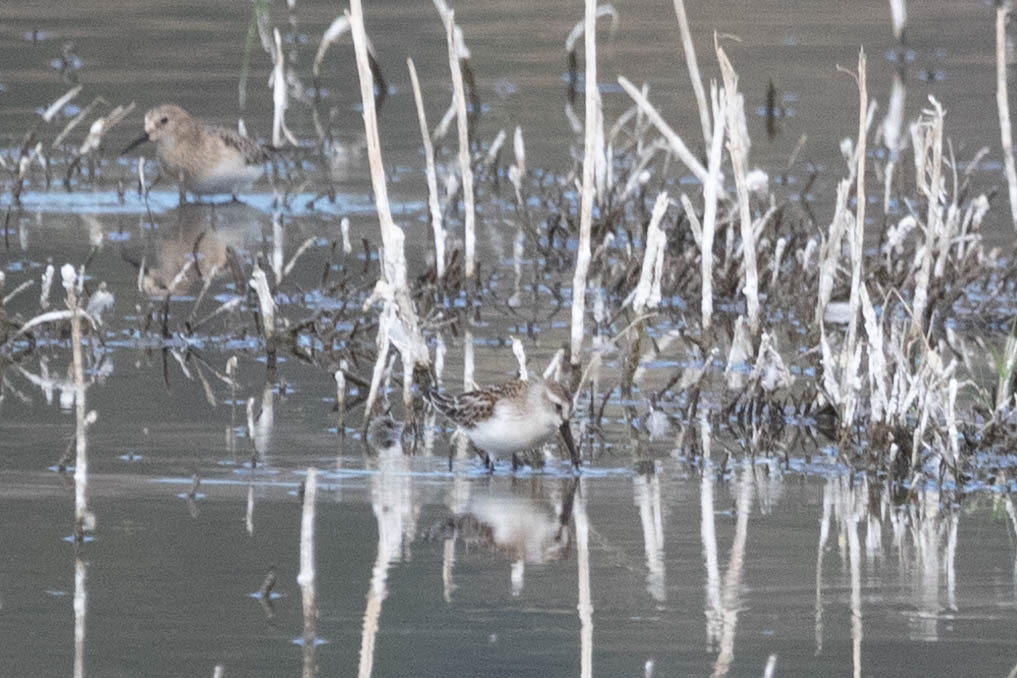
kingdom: Animalia
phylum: Chordata
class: Aves
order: Charadriiformes
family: Scolopacidae
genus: Calidris
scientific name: Calidris mauri
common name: Western sandpiper
